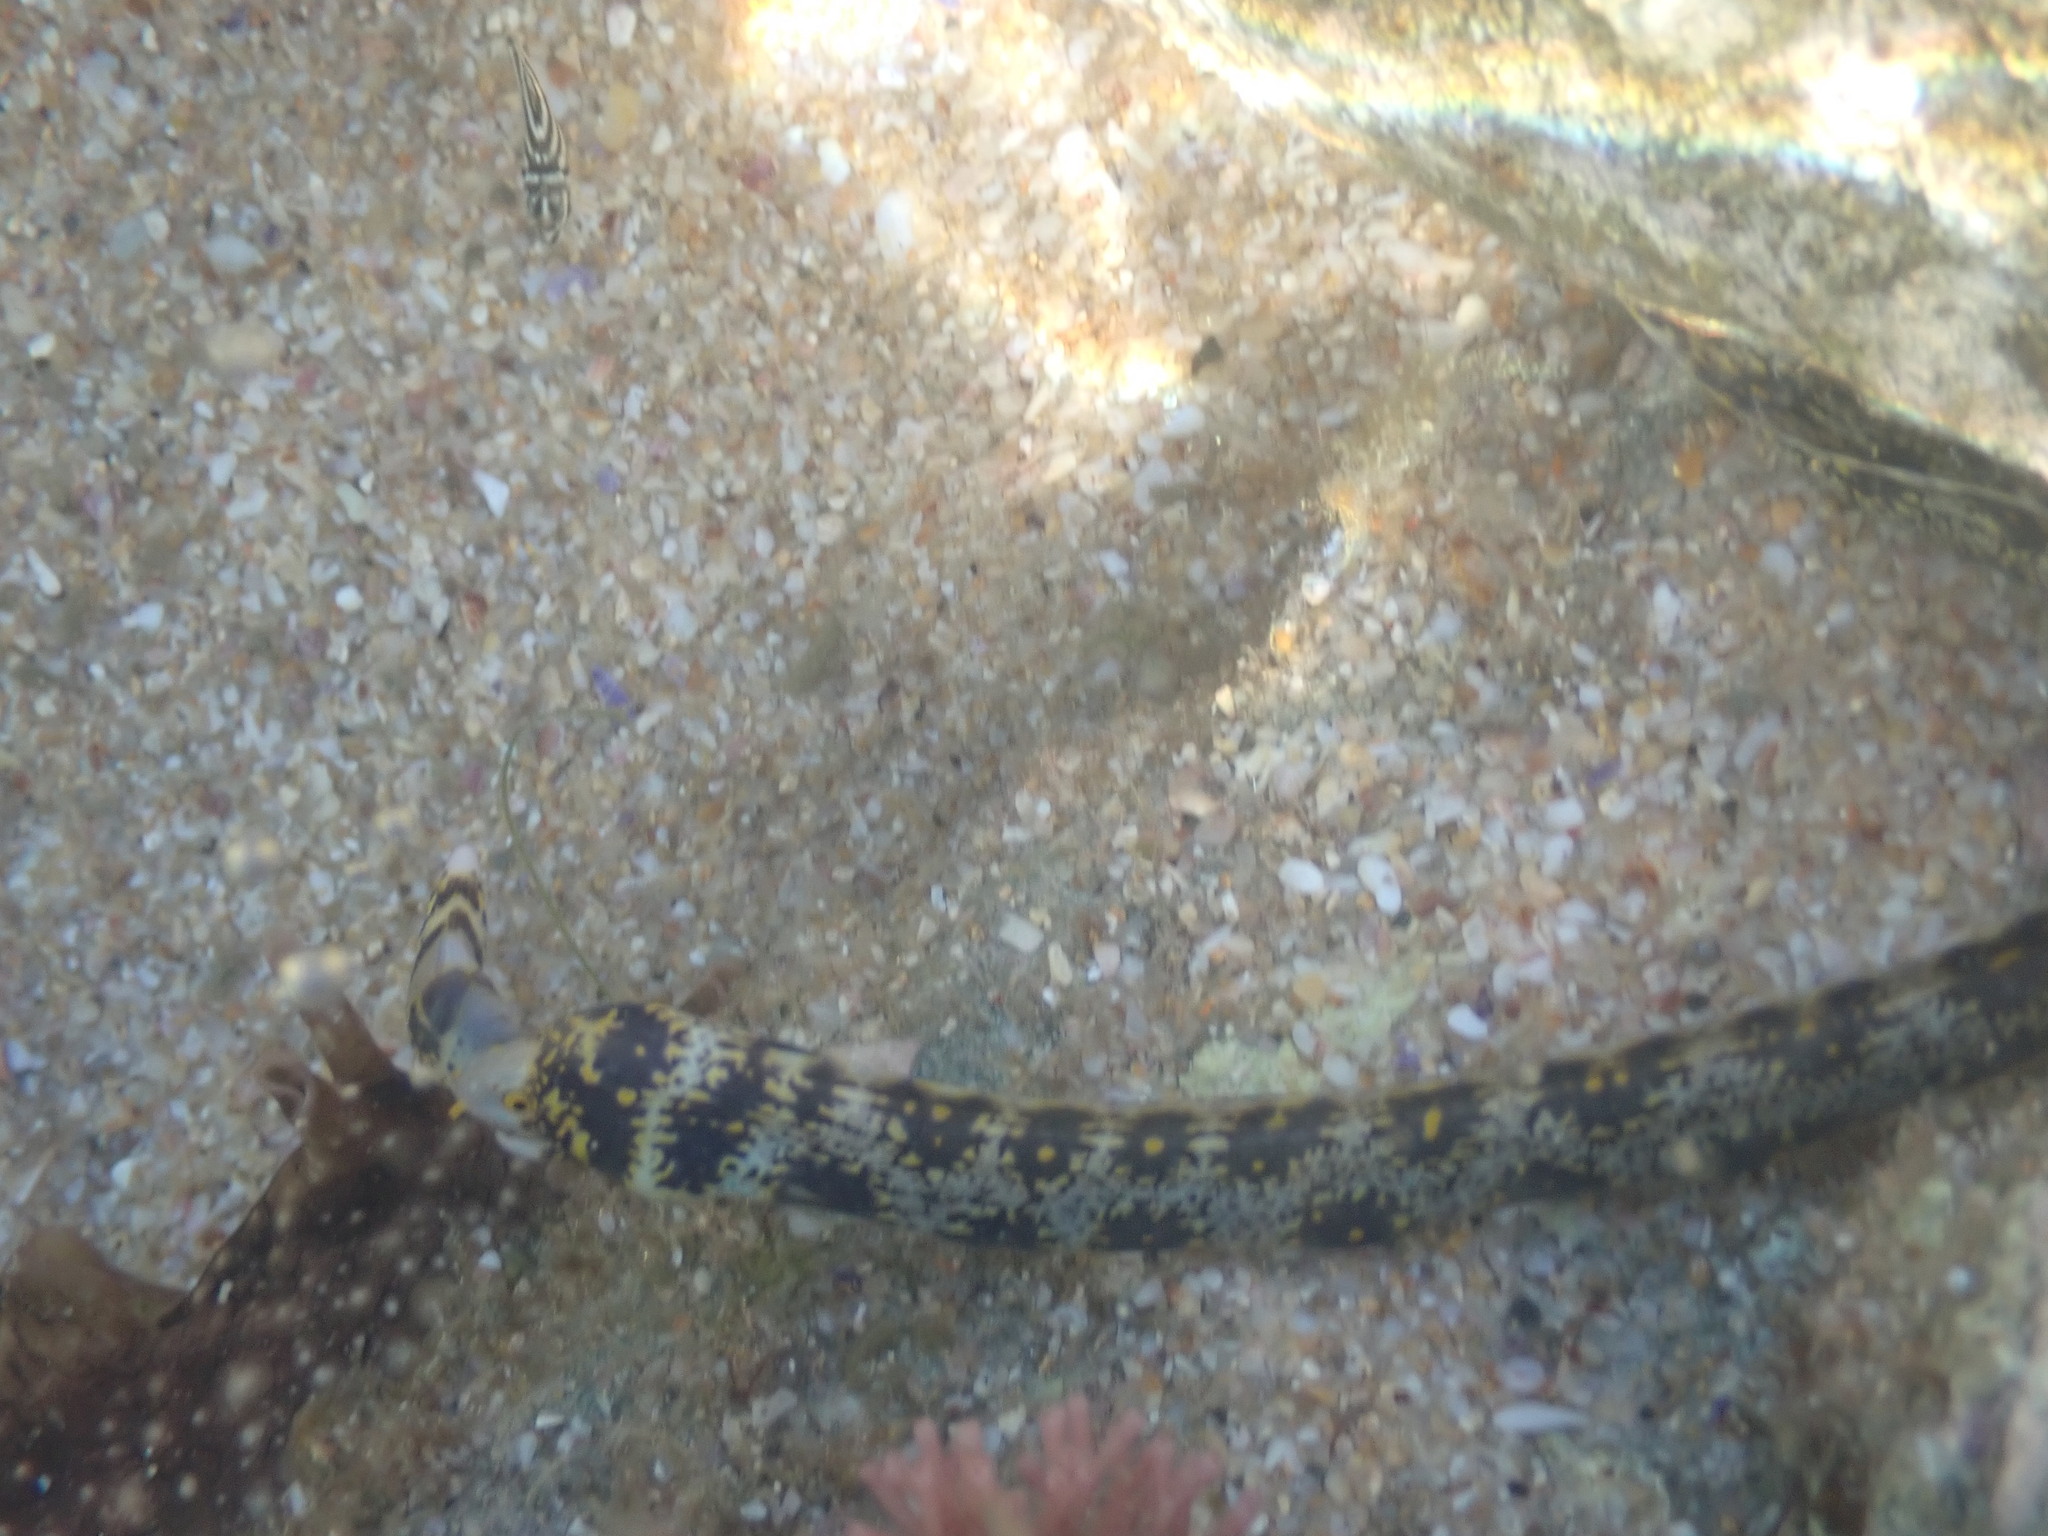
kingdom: Animalia
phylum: Chordata
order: Anguilliformes
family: Muraenidae
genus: Echidna
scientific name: Echidna nebulosa
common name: Snowflake moray
